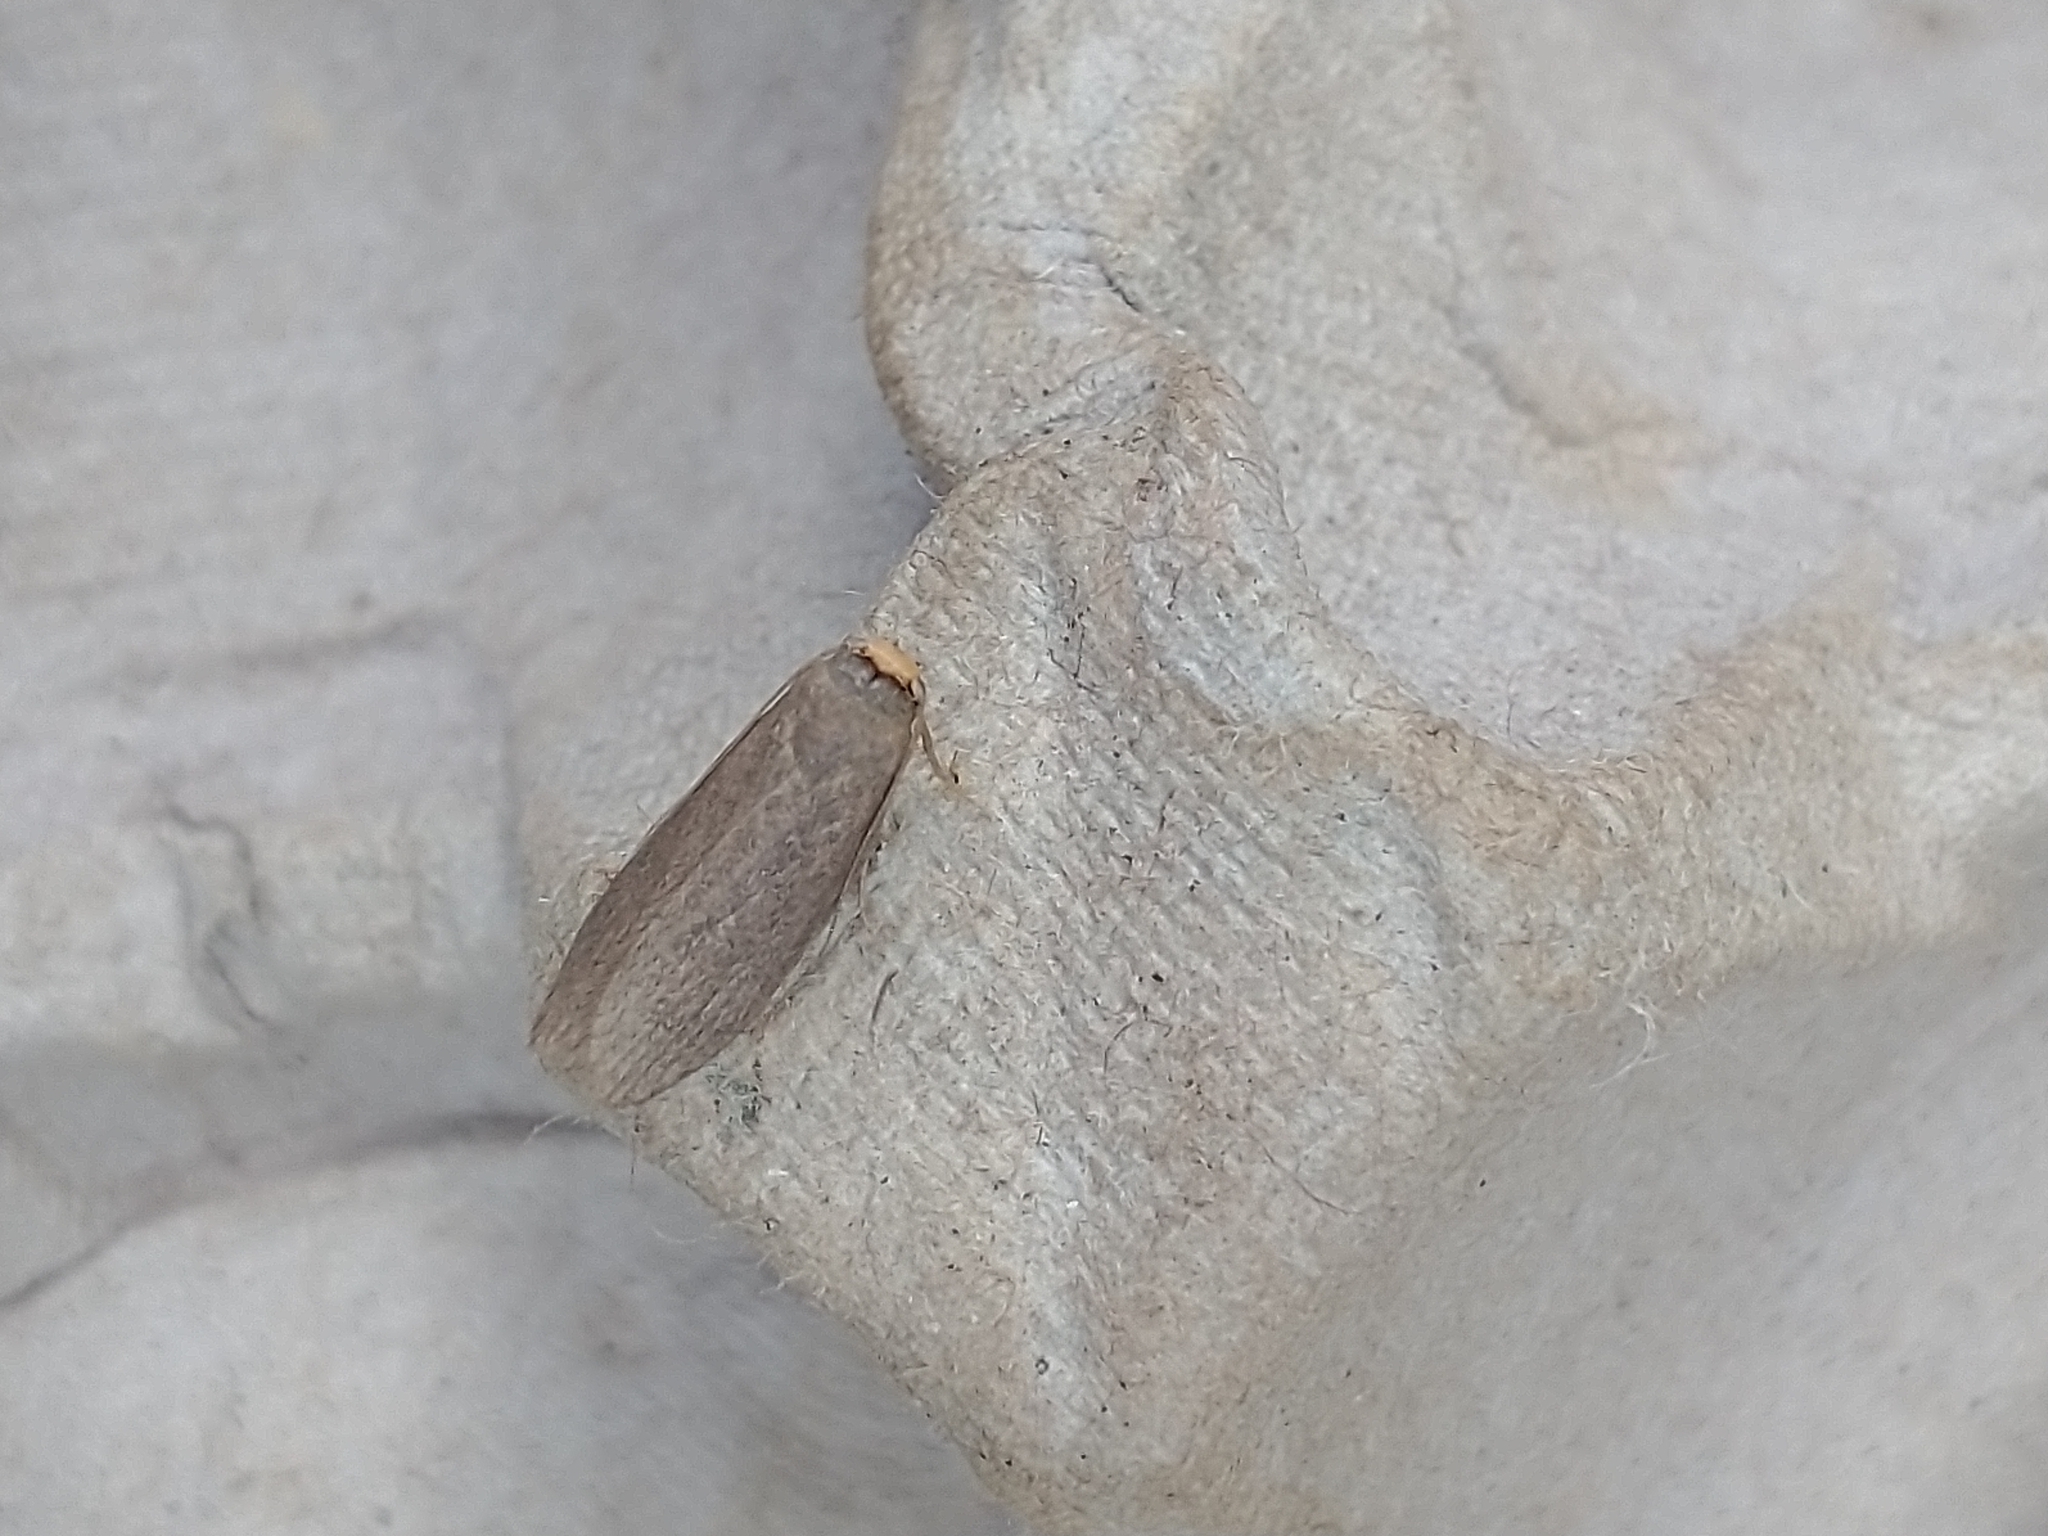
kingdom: Animalia
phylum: Arthropoda
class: Insecta
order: Lepidoptera
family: Pyralidae
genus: Achroia
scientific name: Achroia grisella
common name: Lesser wax moth
